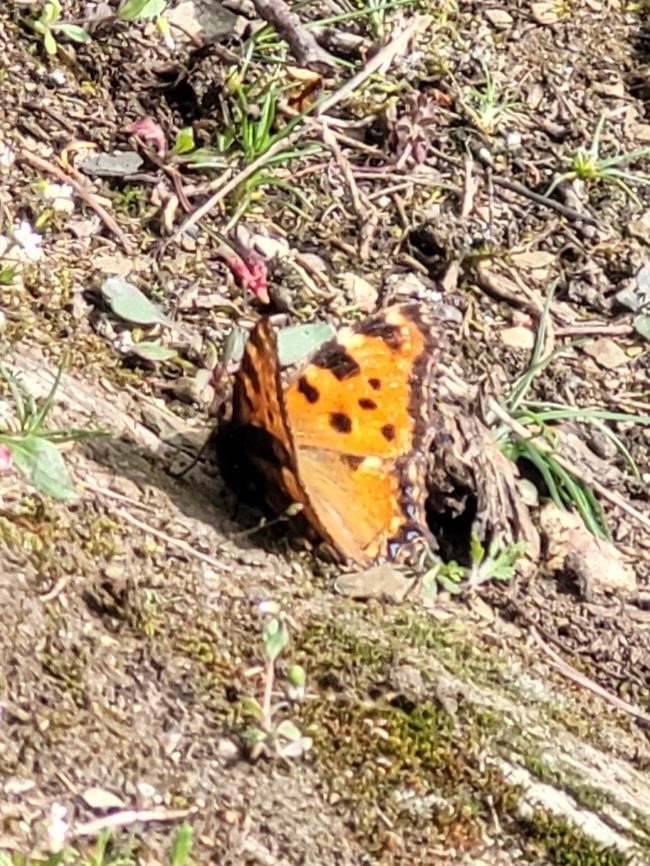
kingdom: Animalia
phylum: Arthropoda
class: Insecta
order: Lepidoptera
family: Nymphalidae
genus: Nymphalis
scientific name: Nymphalis polychloros
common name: Large tortoiseshell
